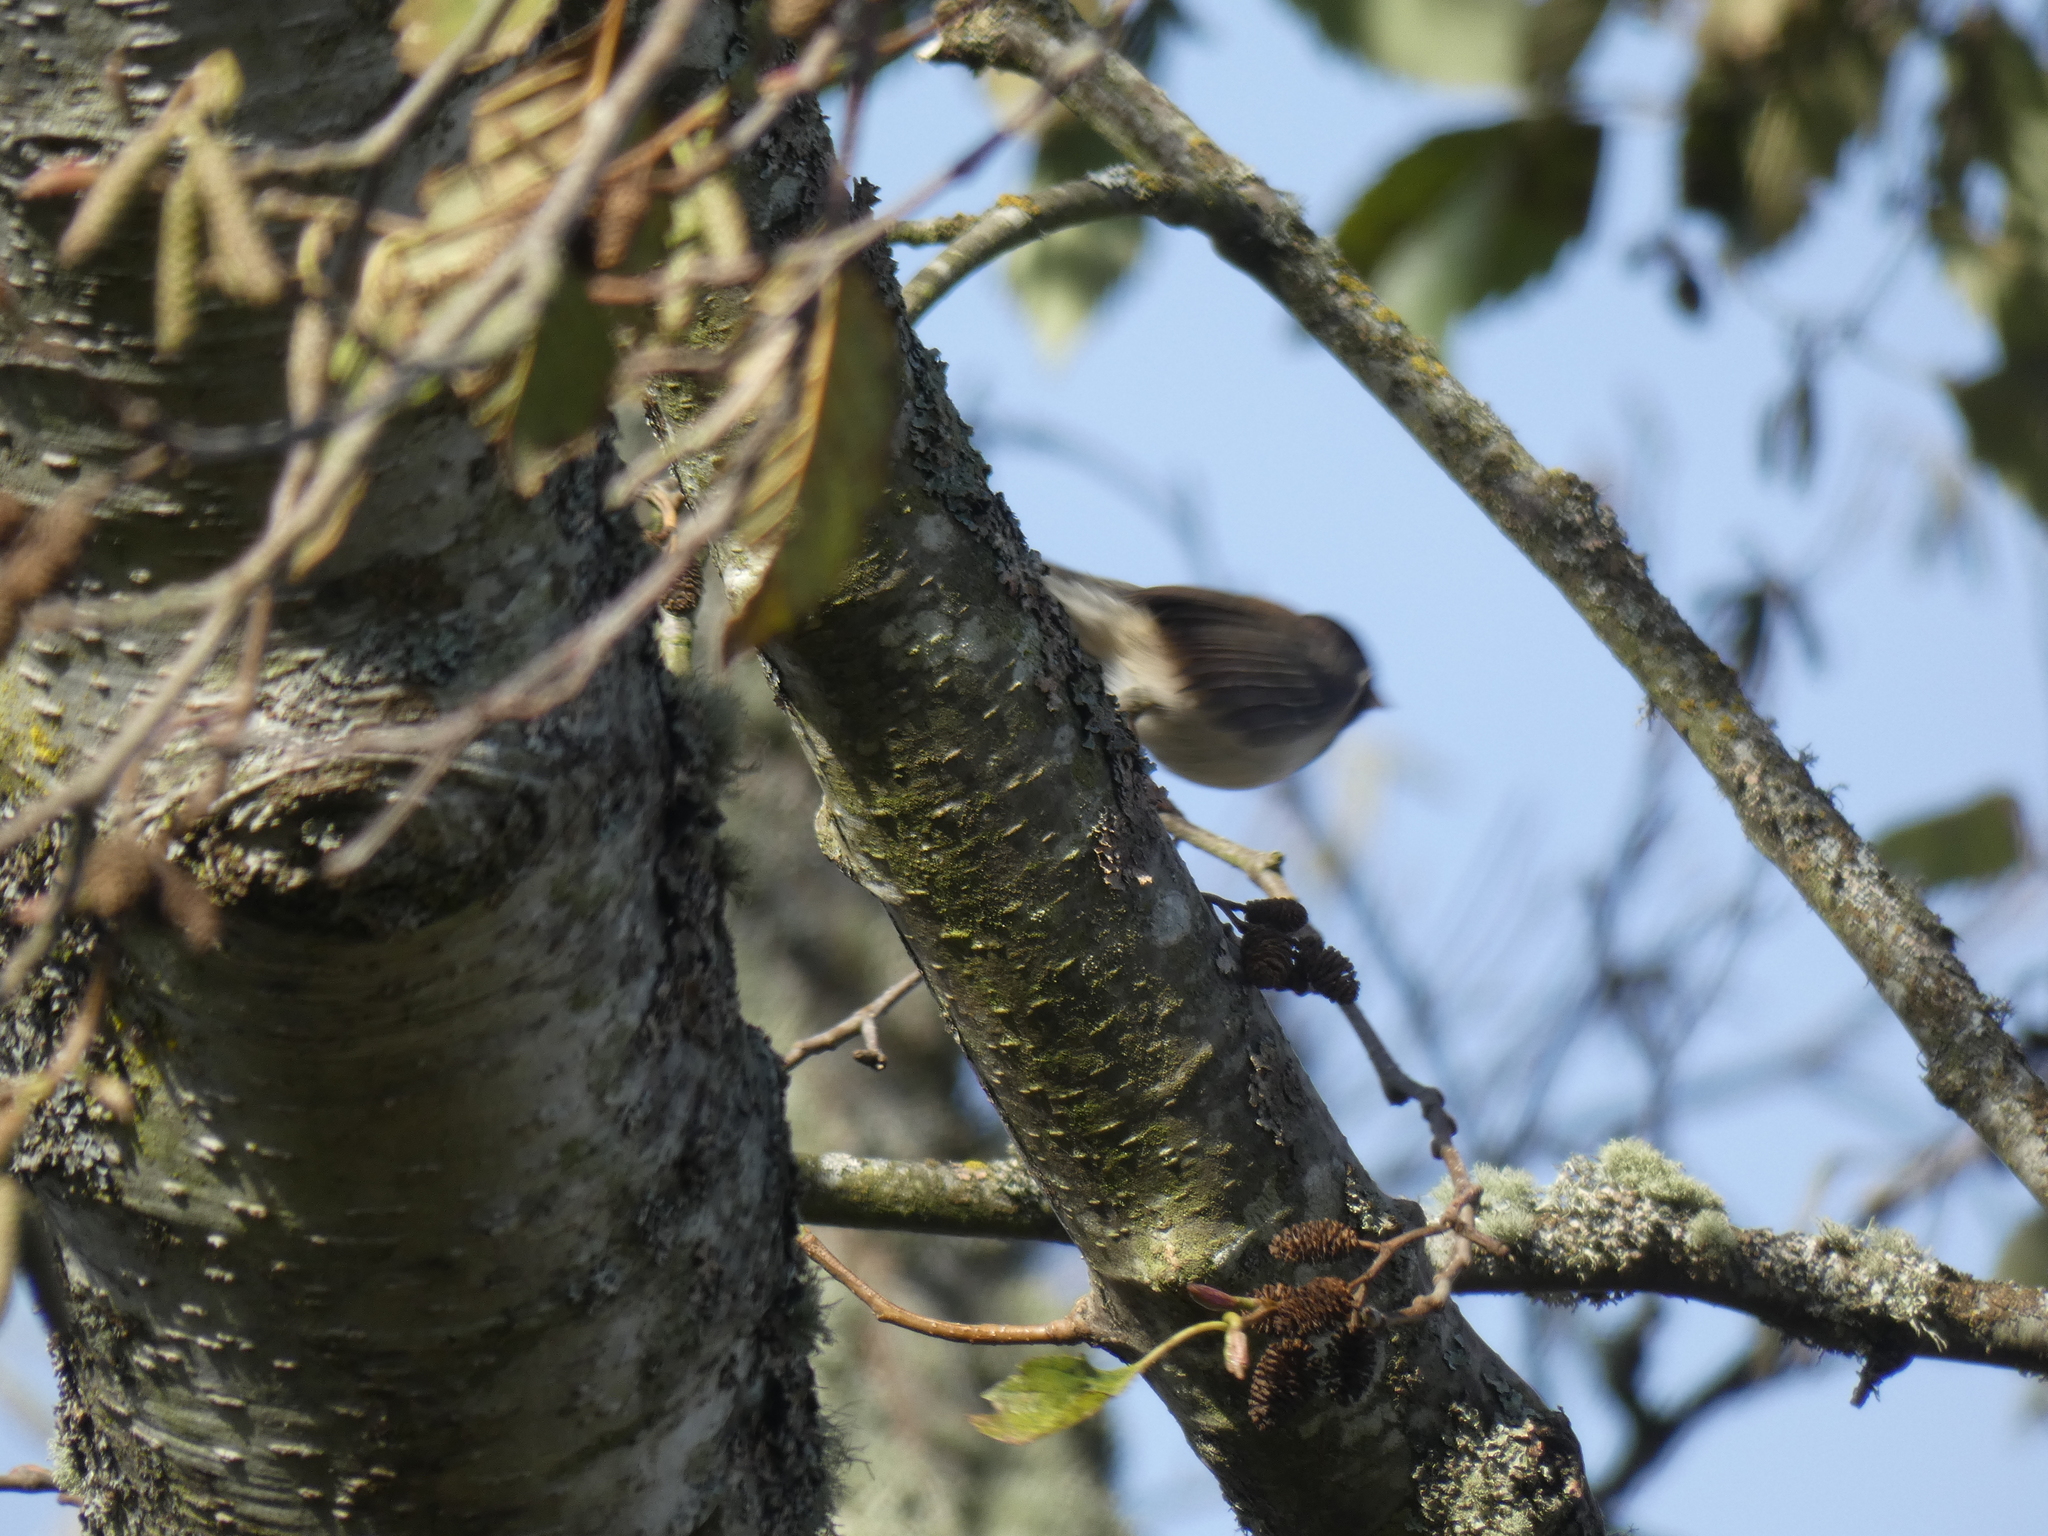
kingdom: Animalia
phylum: Chordata
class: Aves
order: Passeriformes
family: Passerellidae
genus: Junco
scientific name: Junco hyemalis
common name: Dark-eyed junco
